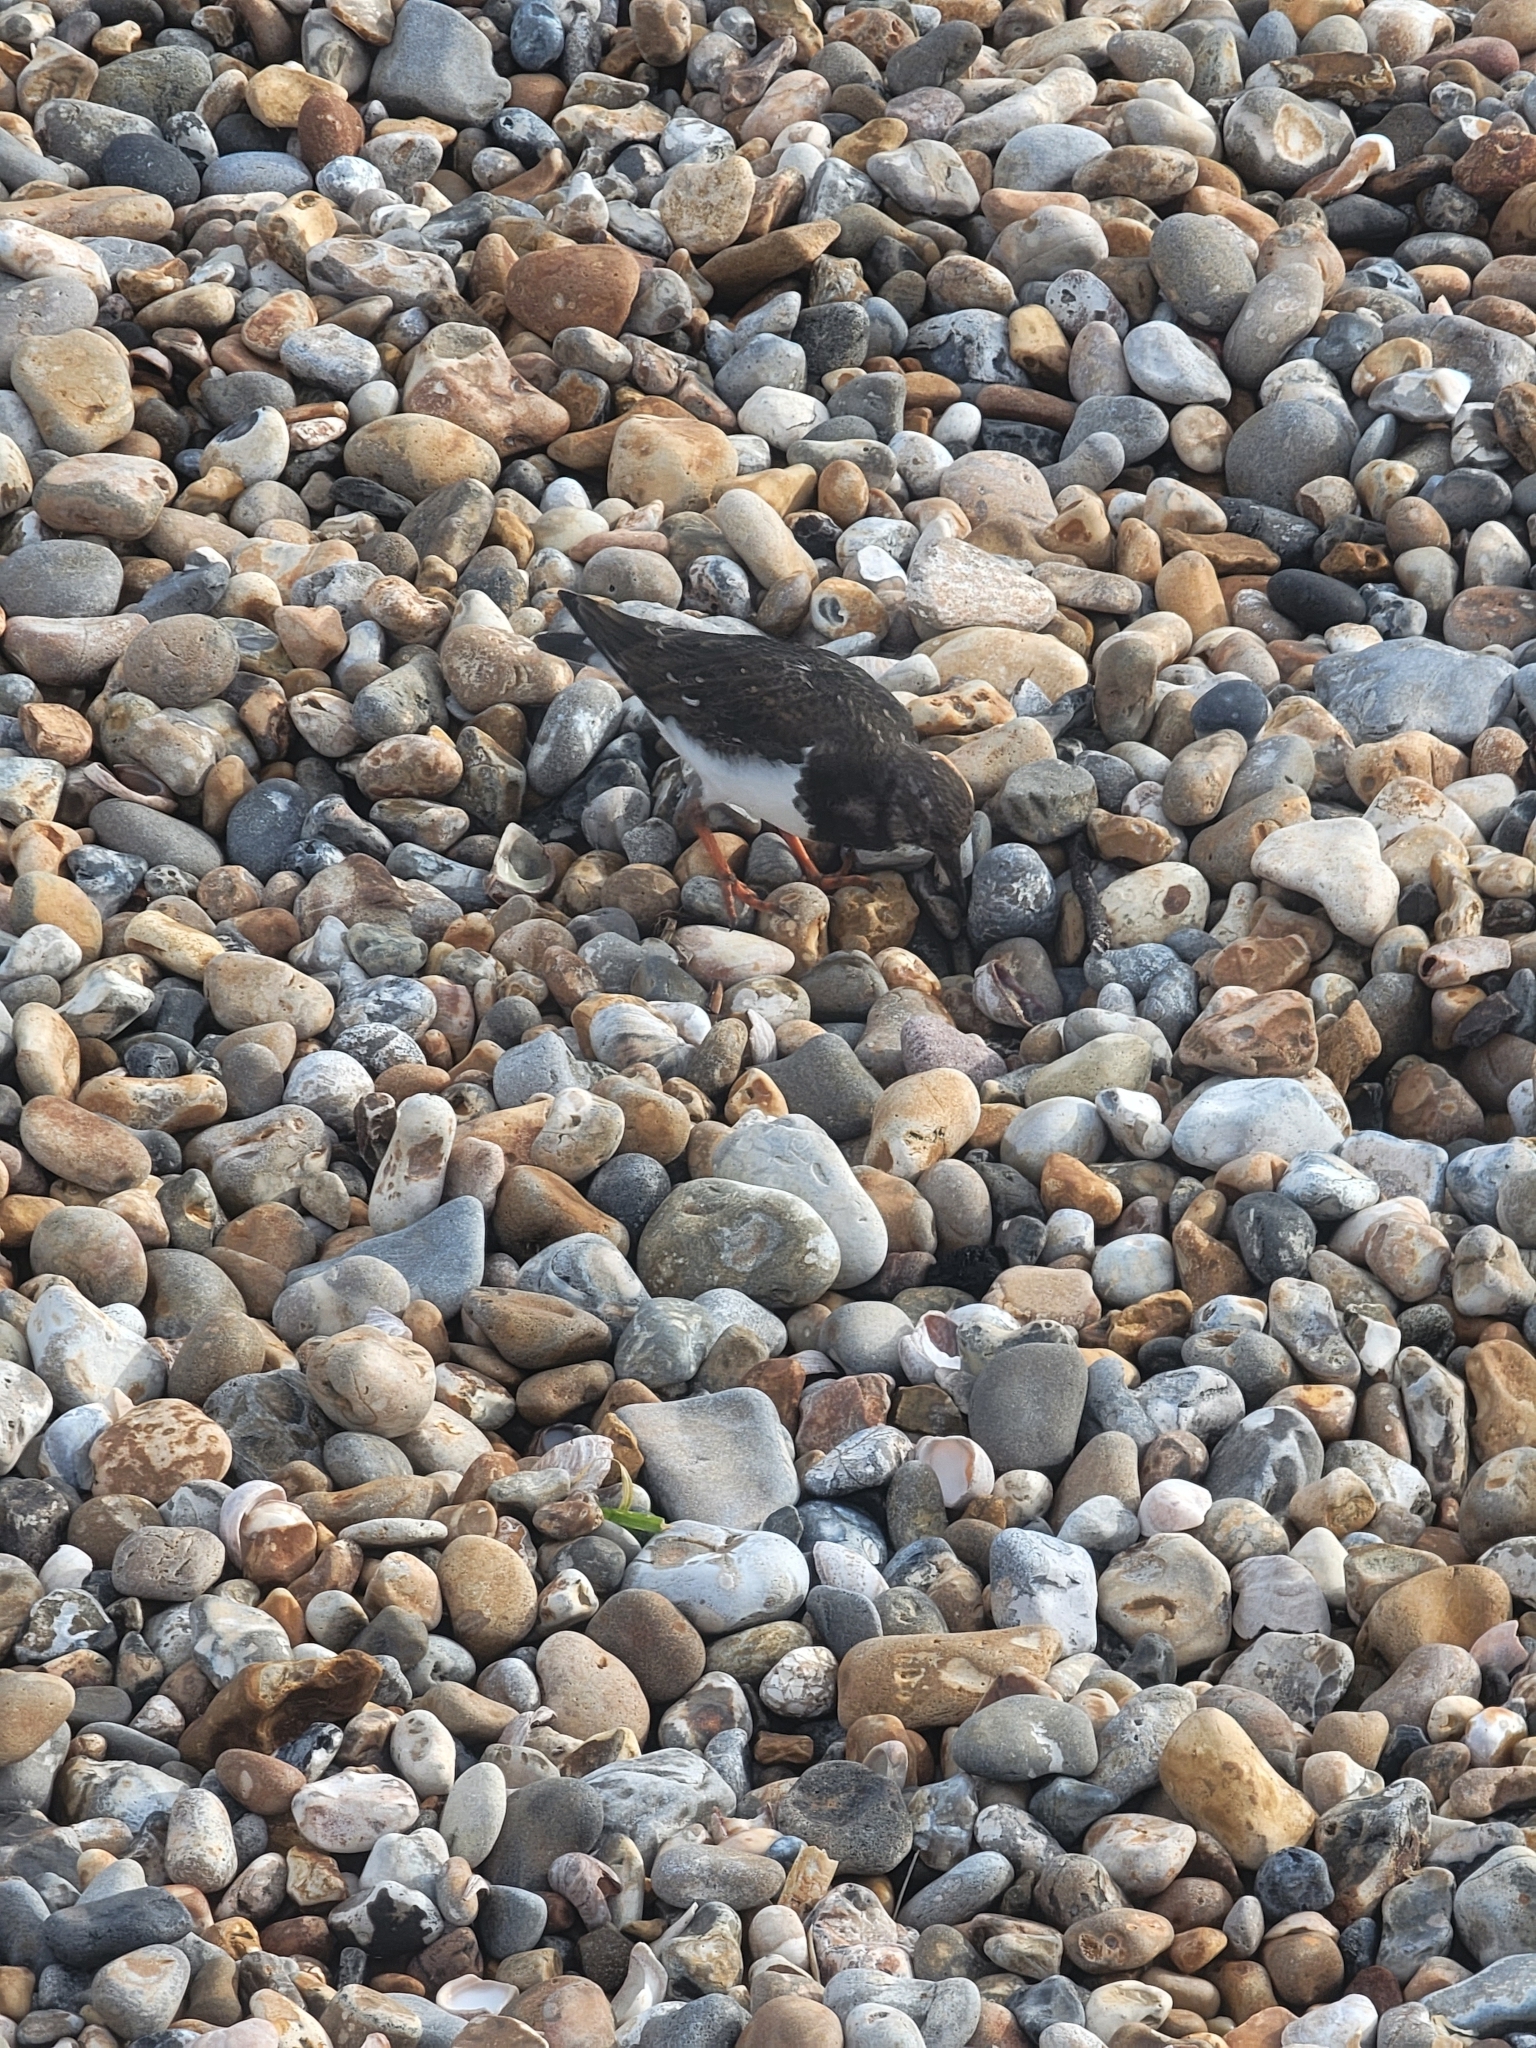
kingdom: Animalia
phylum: Chordata
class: Aves
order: Charadriiformes
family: Scolopacidae
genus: Arenaria
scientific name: Arenaria interpres
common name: Ruddy turnstone
